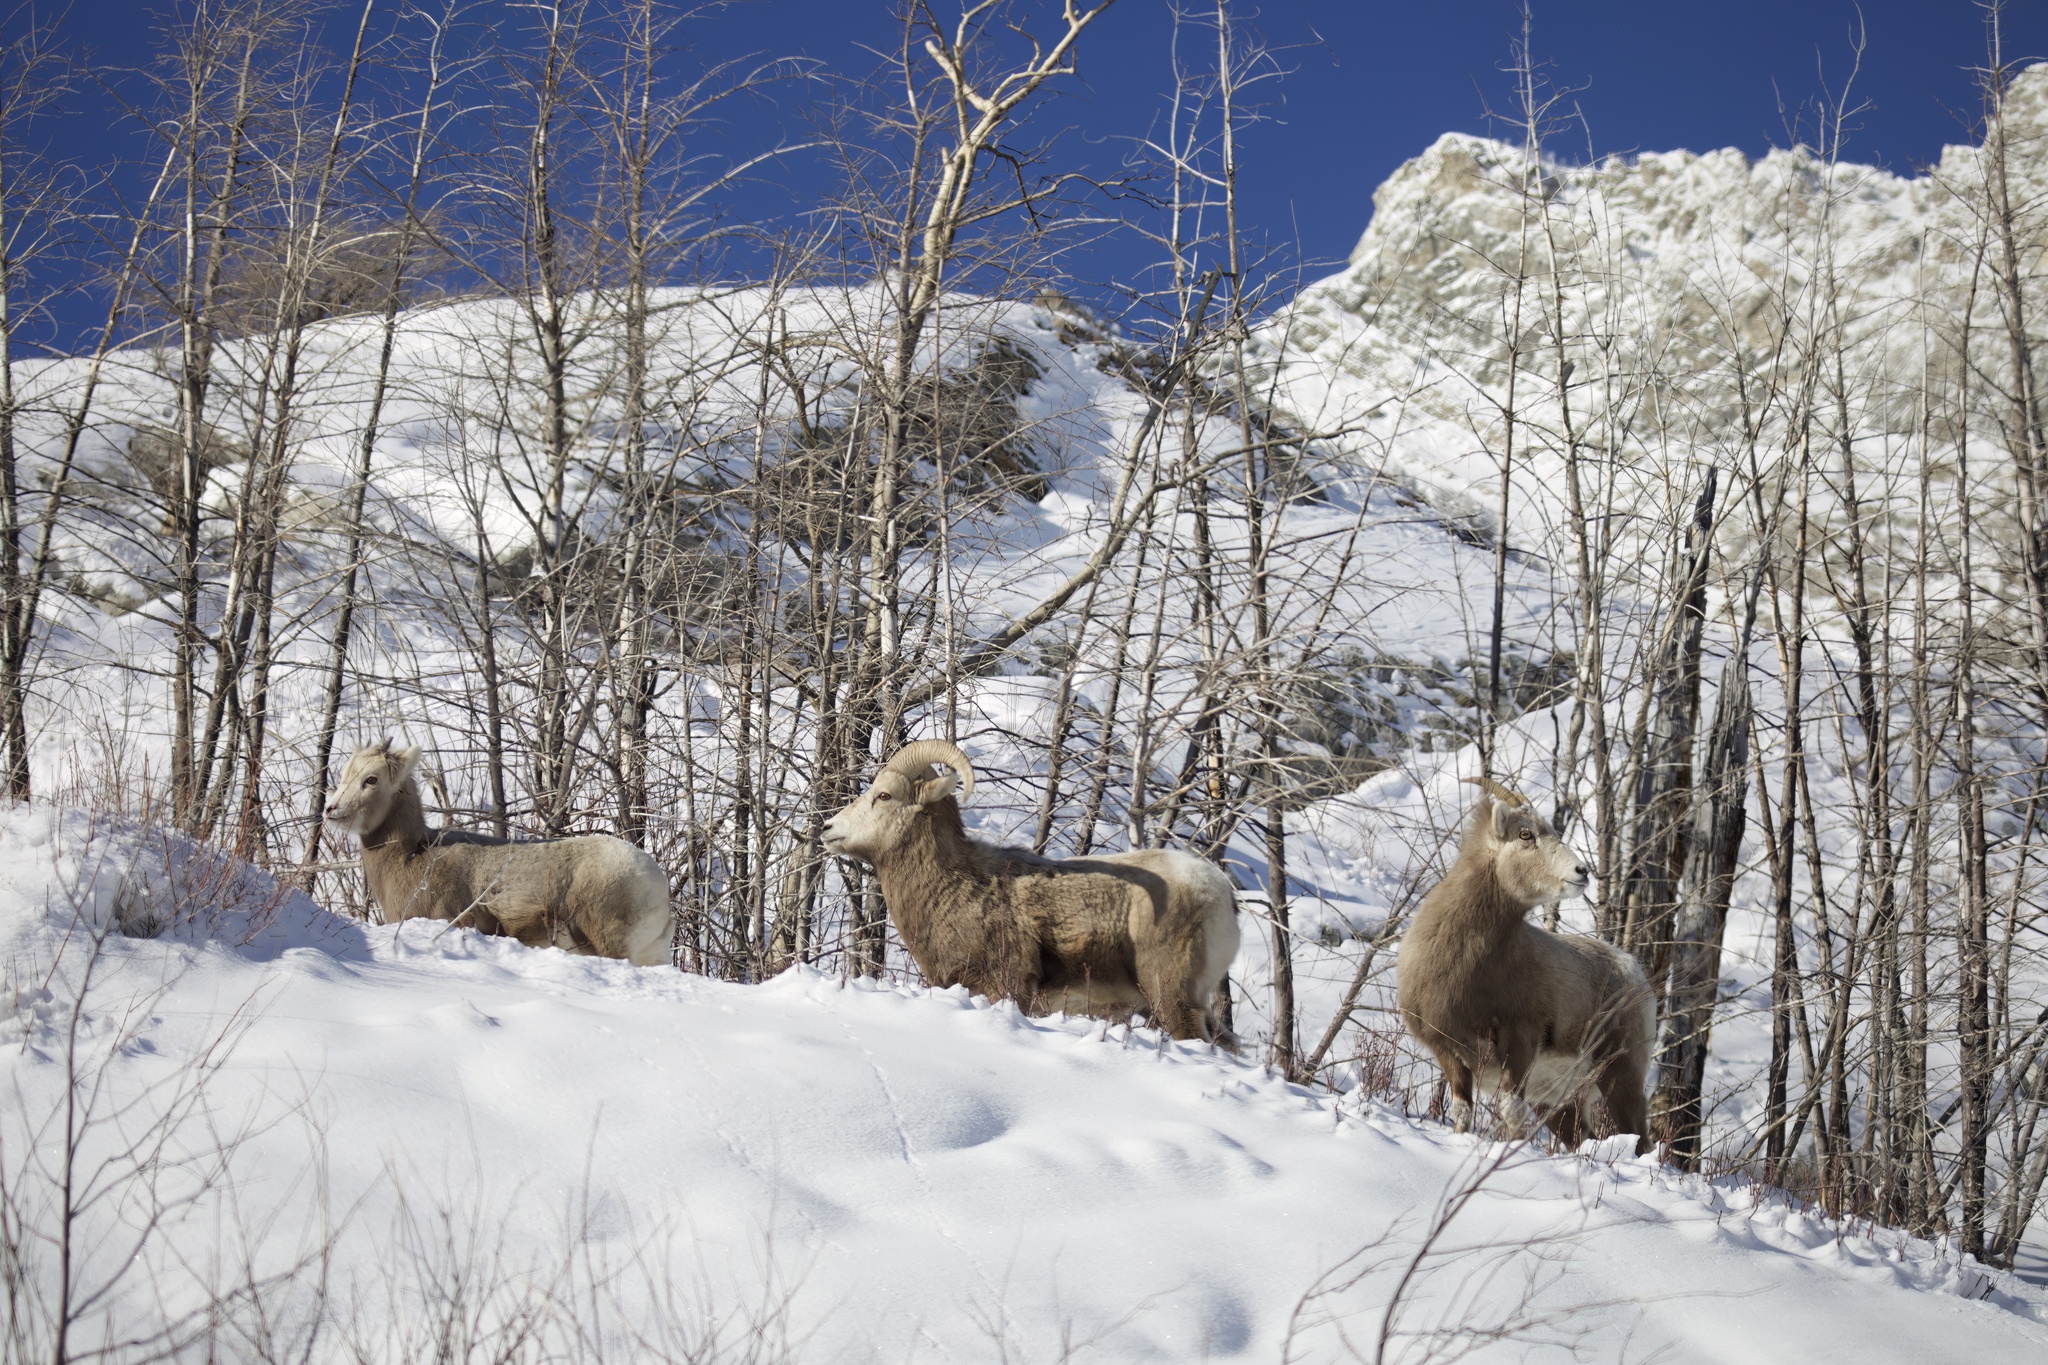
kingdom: Animalia
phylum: Chordata
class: Mammalia
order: Artiodactyla
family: Bovidae
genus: Ovis
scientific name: Ovis canadensis
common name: Bighorn sheep
